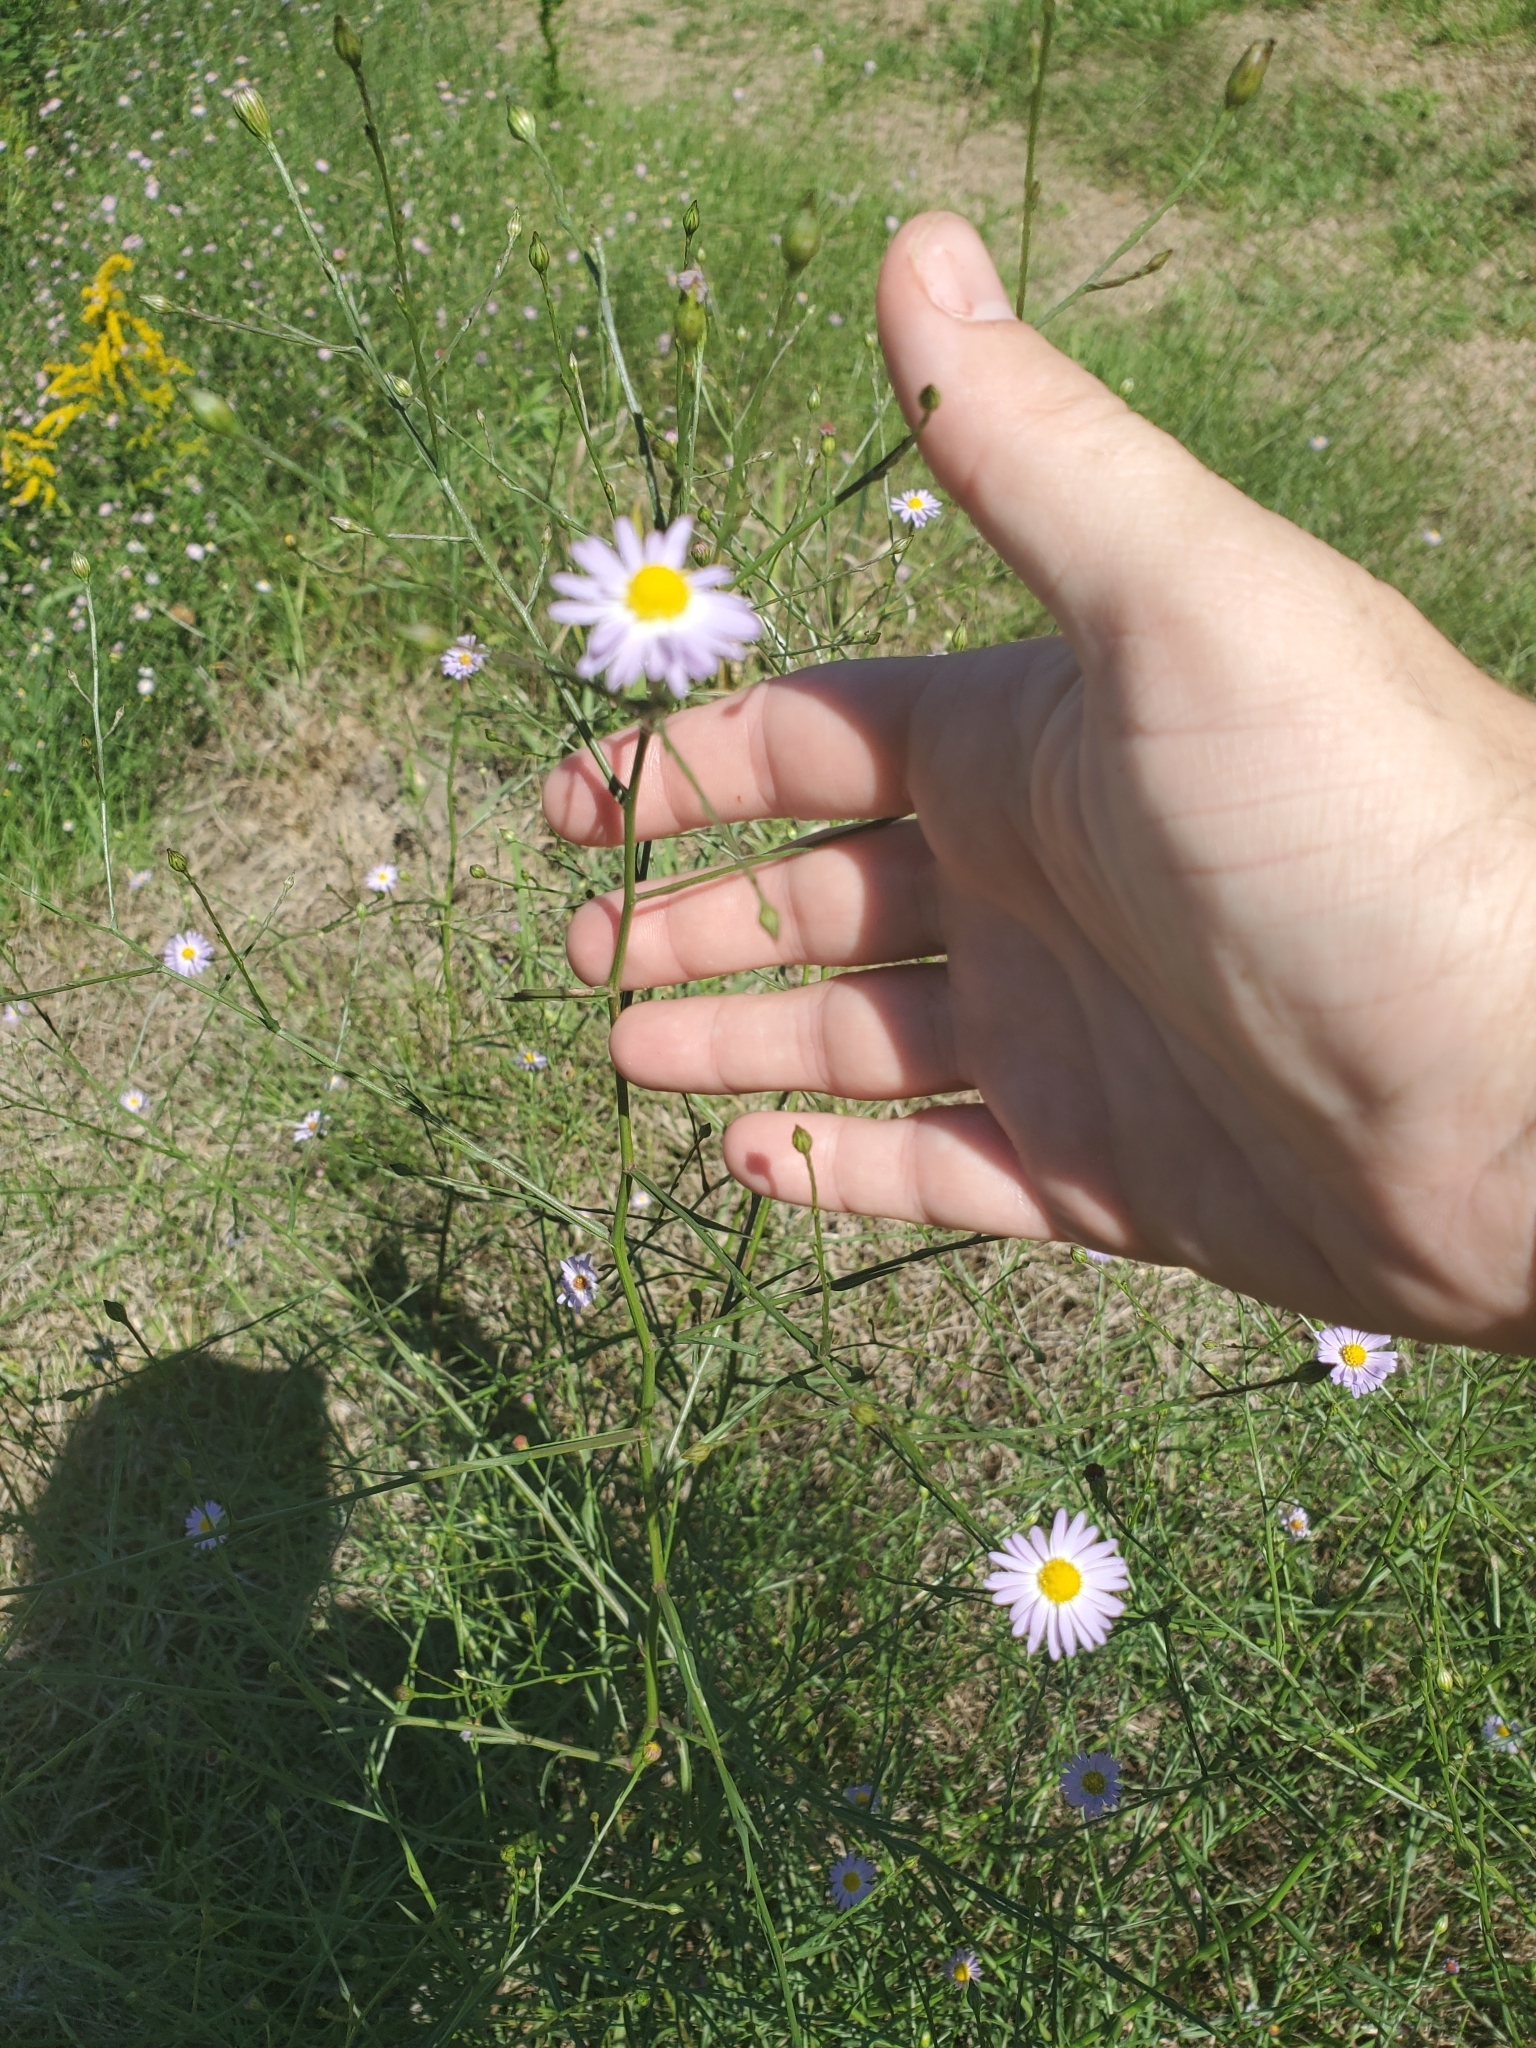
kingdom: Plantae
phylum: Tracheophyta
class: Magnoliopsida
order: Asterales
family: Asteraceae
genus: Symphyotrichum
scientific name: Symphyotrichum divaricatum
